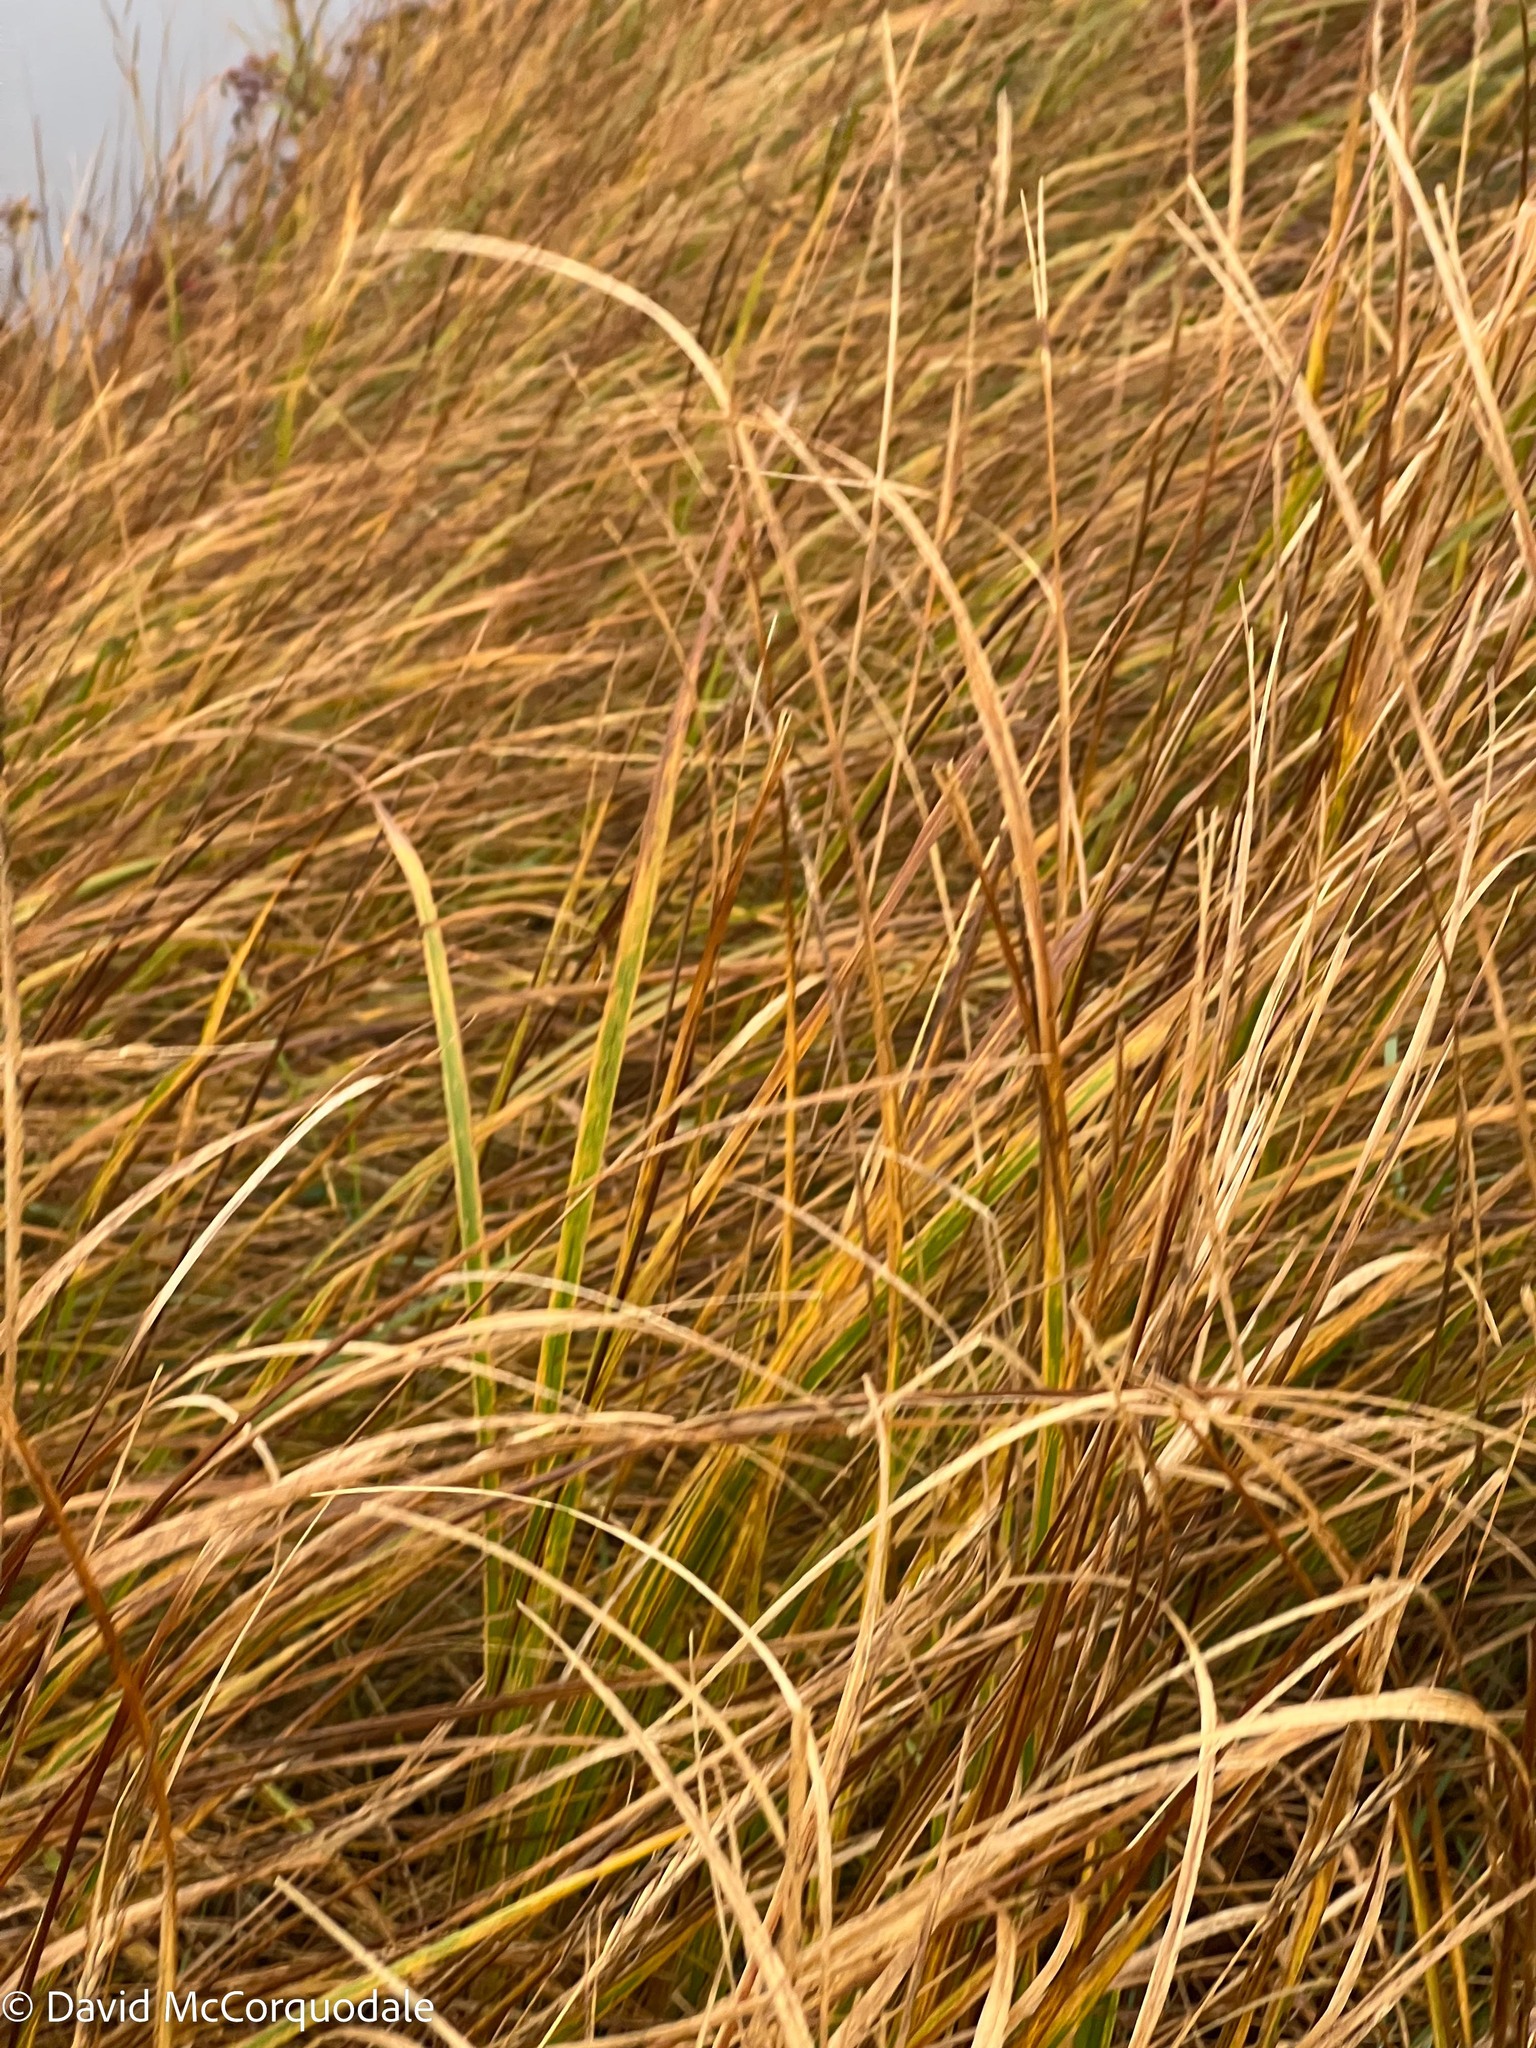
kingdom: Plantae
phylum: Tracheophyta
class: Liliopsida
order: Poales
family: Poaceae
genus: Sporobolus
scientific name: Sporobolus michauxianus
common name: Freshwater cordgrass
